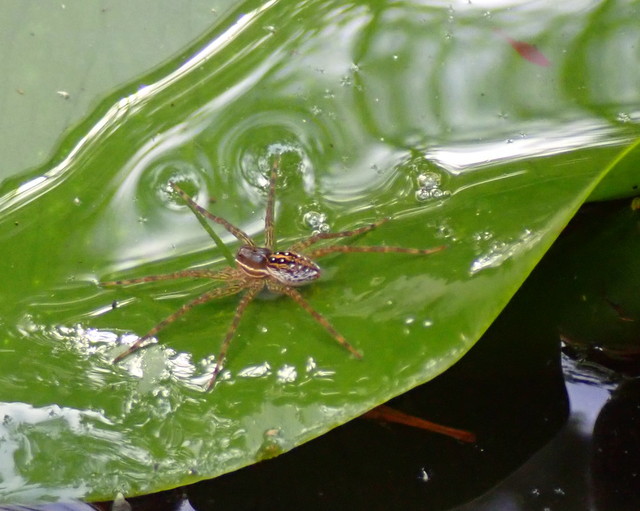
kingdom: Animalia
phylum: Arthropoda
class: Arachnida
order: Araneae
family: Pisauridae
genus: Dolomedes
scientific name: Dolomedes triton
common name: Six-spotted fishing spider
